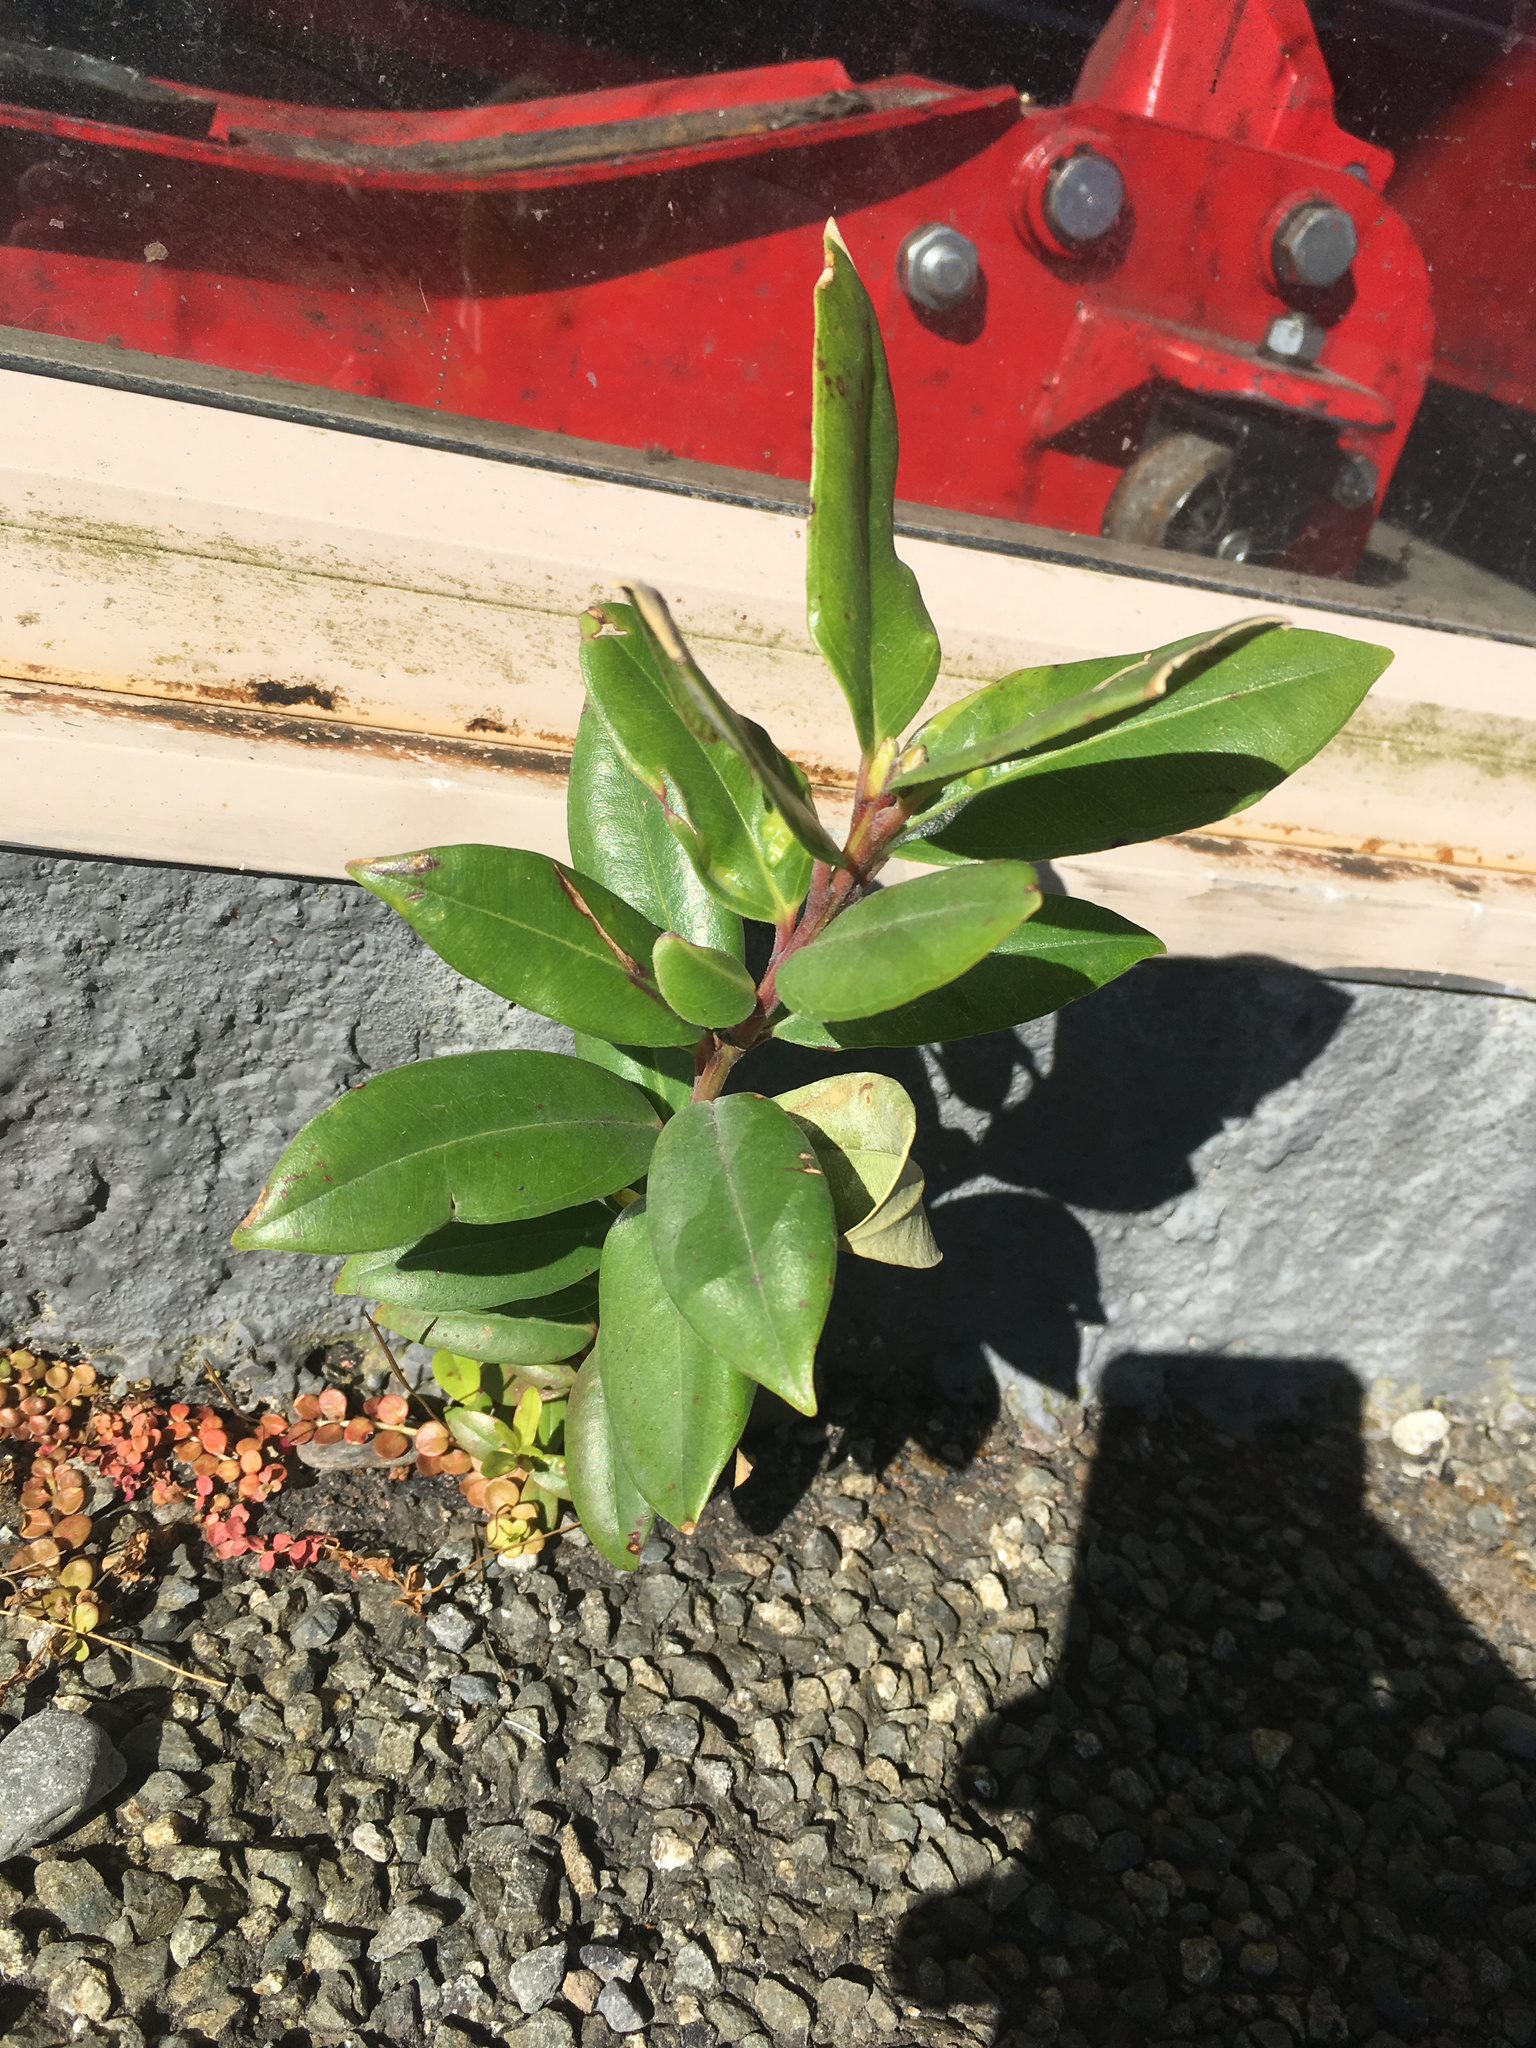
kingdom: Plantae
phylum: Tracheophyta
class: Magnoliopsida
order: Myrtales
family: Myrtaceae
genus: Metrosideros
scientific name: Metrosideros excelsa
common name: New zealand christmastree
